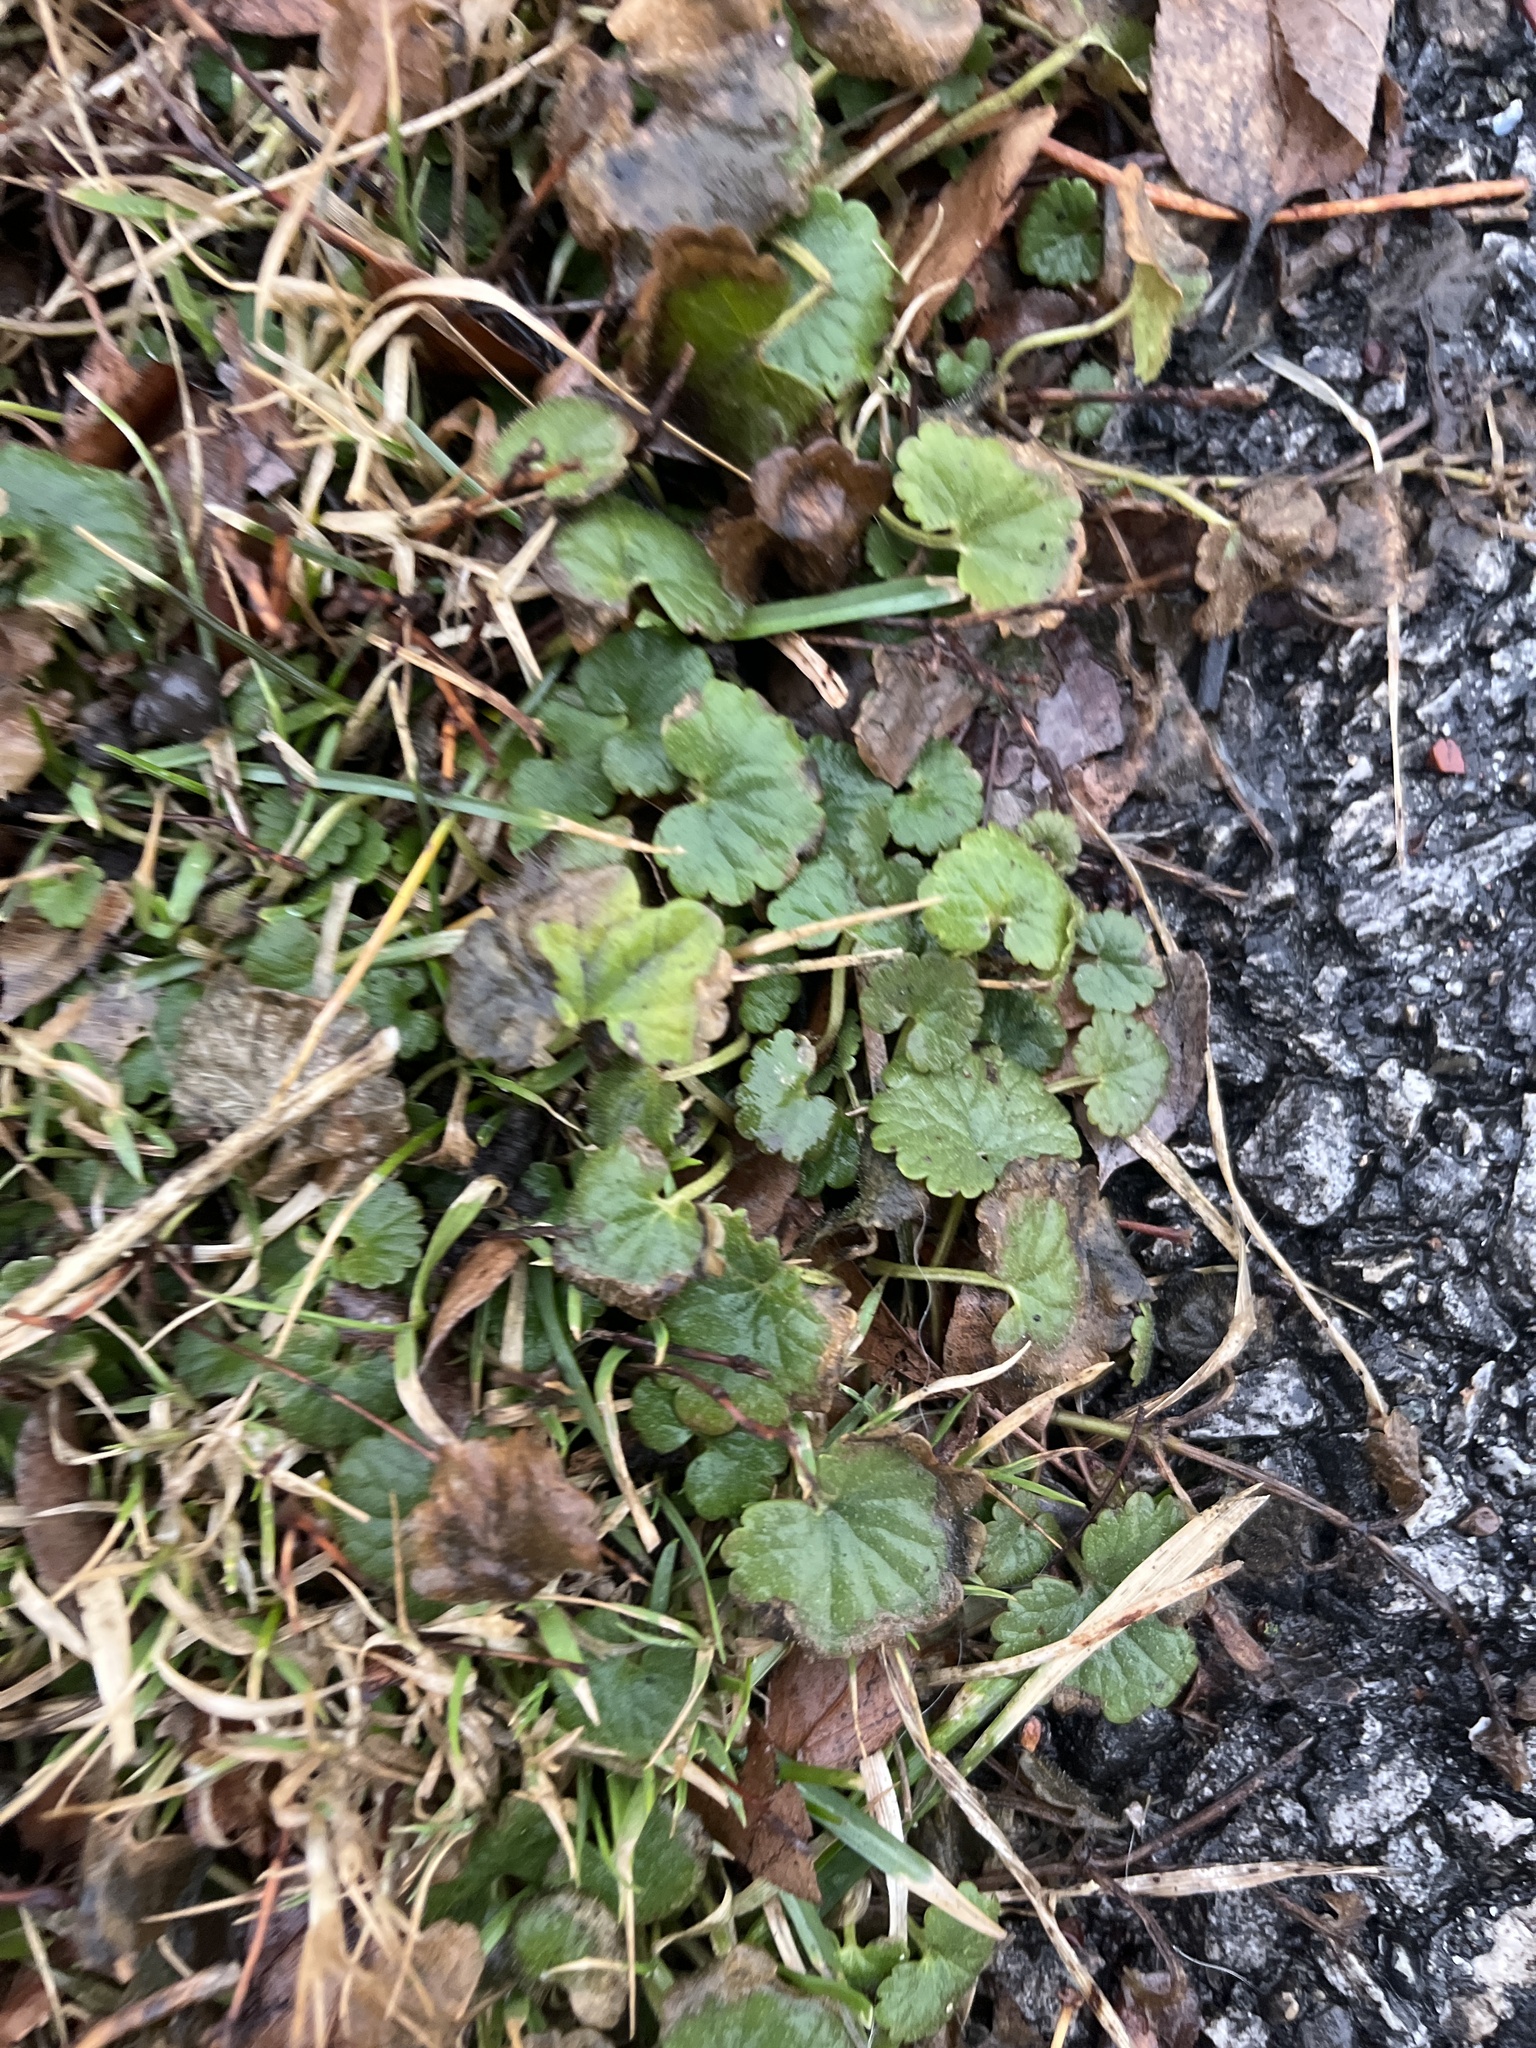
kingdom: Plantae
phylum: Tracheophyta
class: Magnoliopsida
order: Lamiales
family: Lamiaceae
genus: Glechoma
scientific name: Glechoma hederacea
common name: Ground ivy
